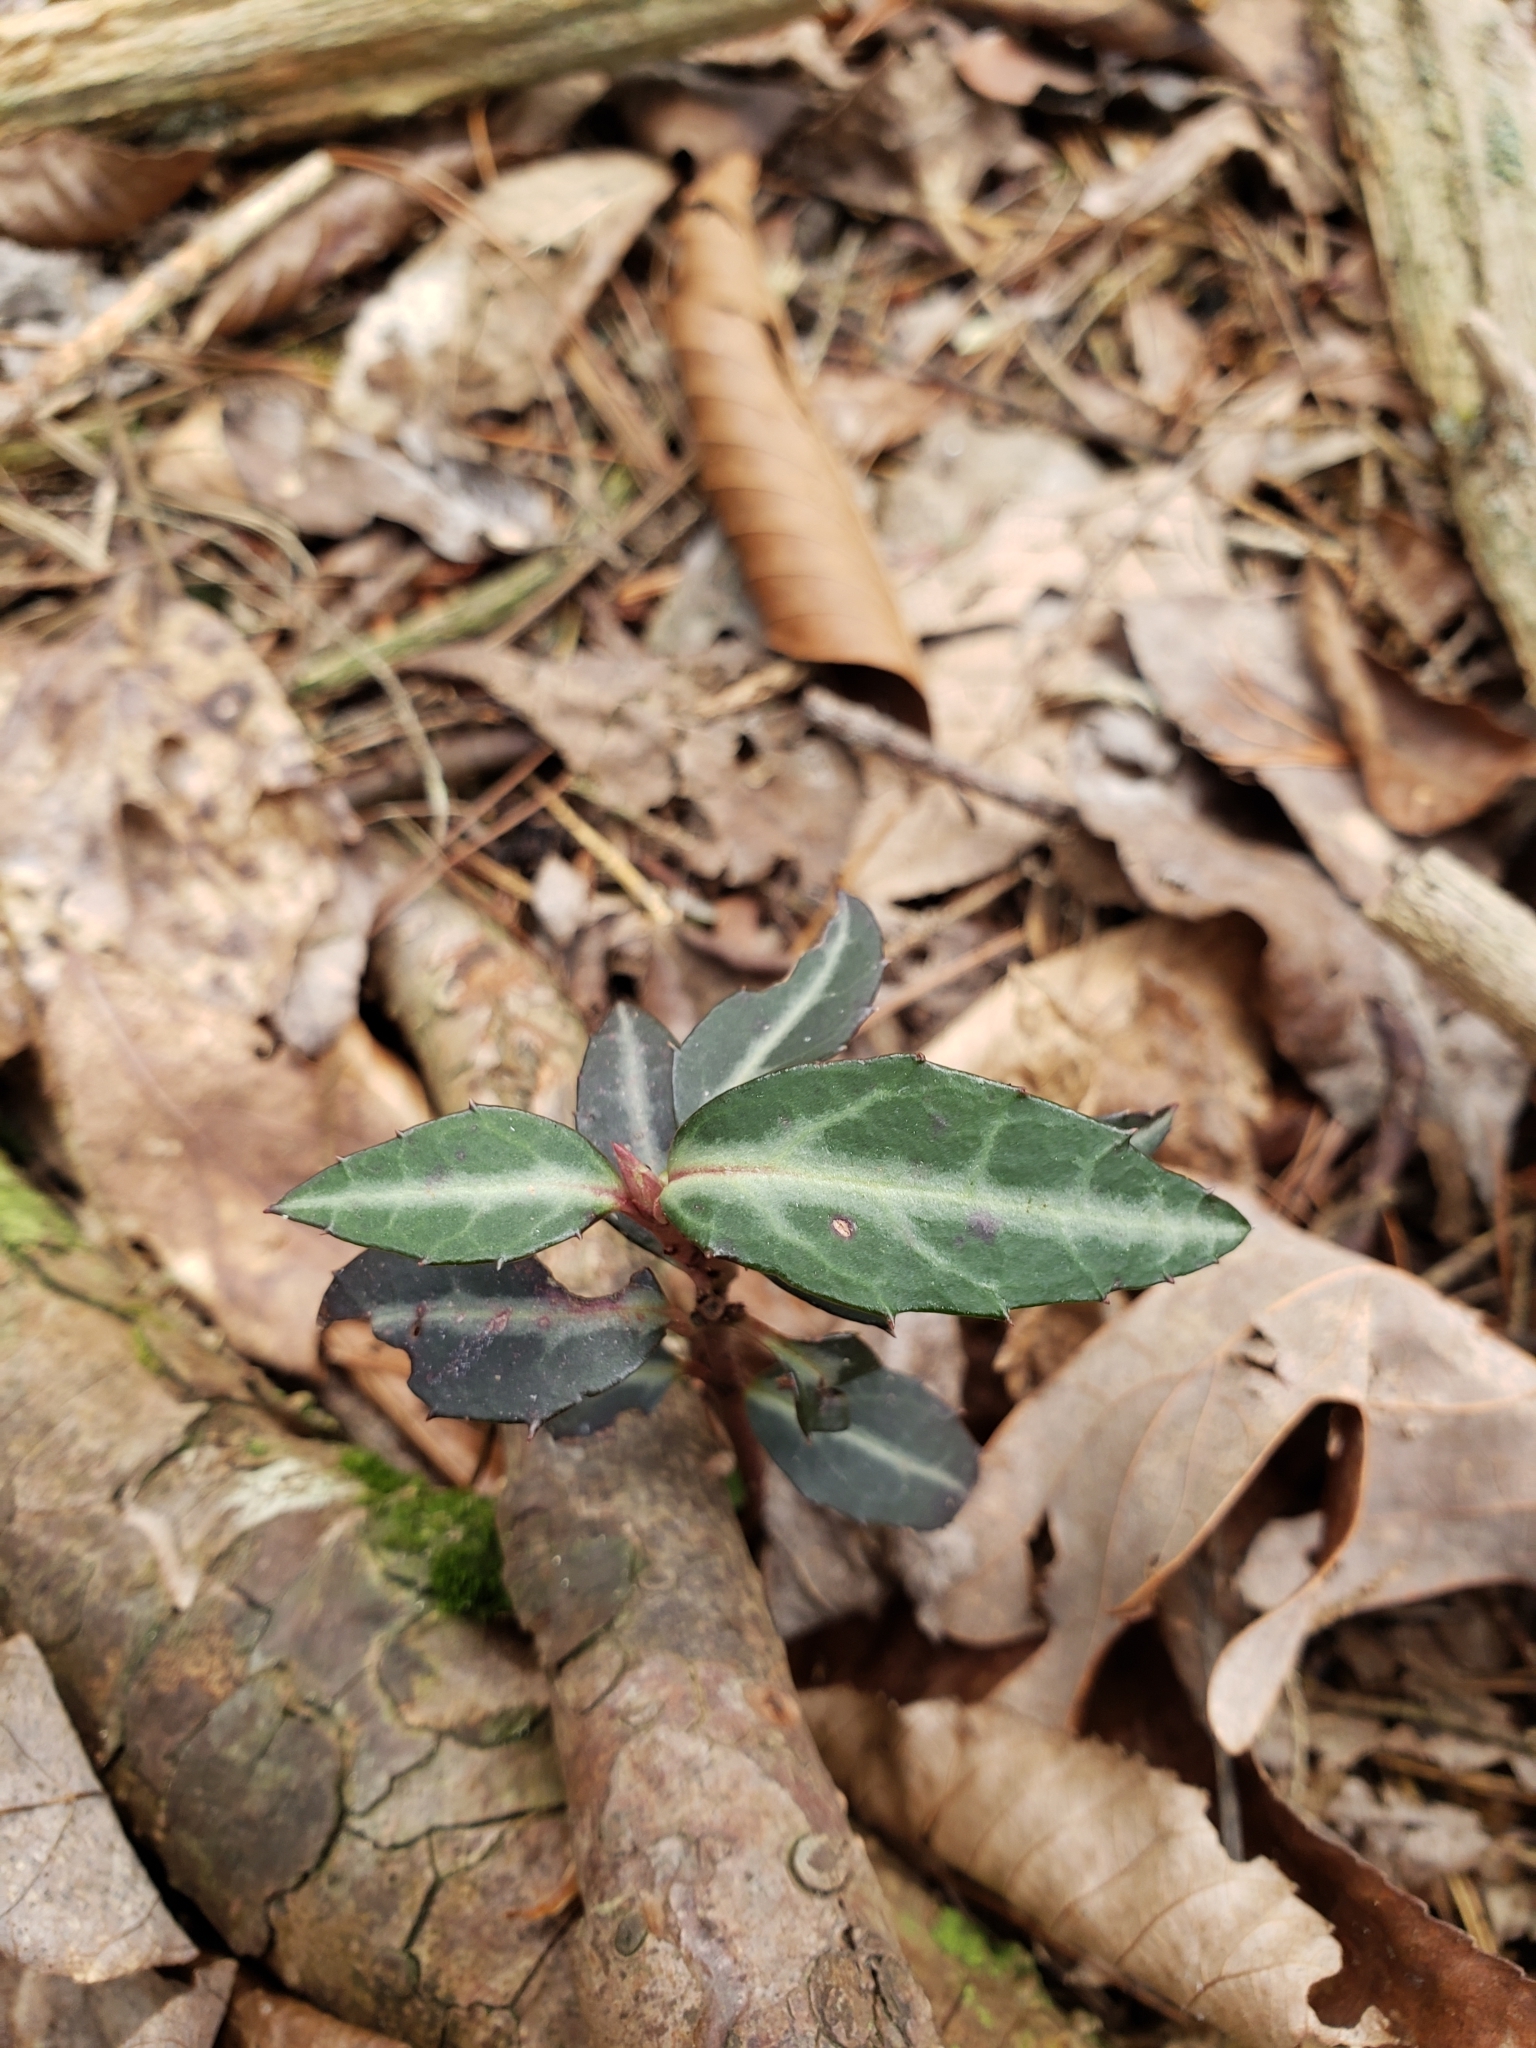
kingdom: Plantae
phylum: Tracheophyta
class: Magnoliopsida
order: Ericales
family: Ericaceae
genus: Chimaphila
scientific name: Chimaphila maculata
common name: Spotted pipsissewa
